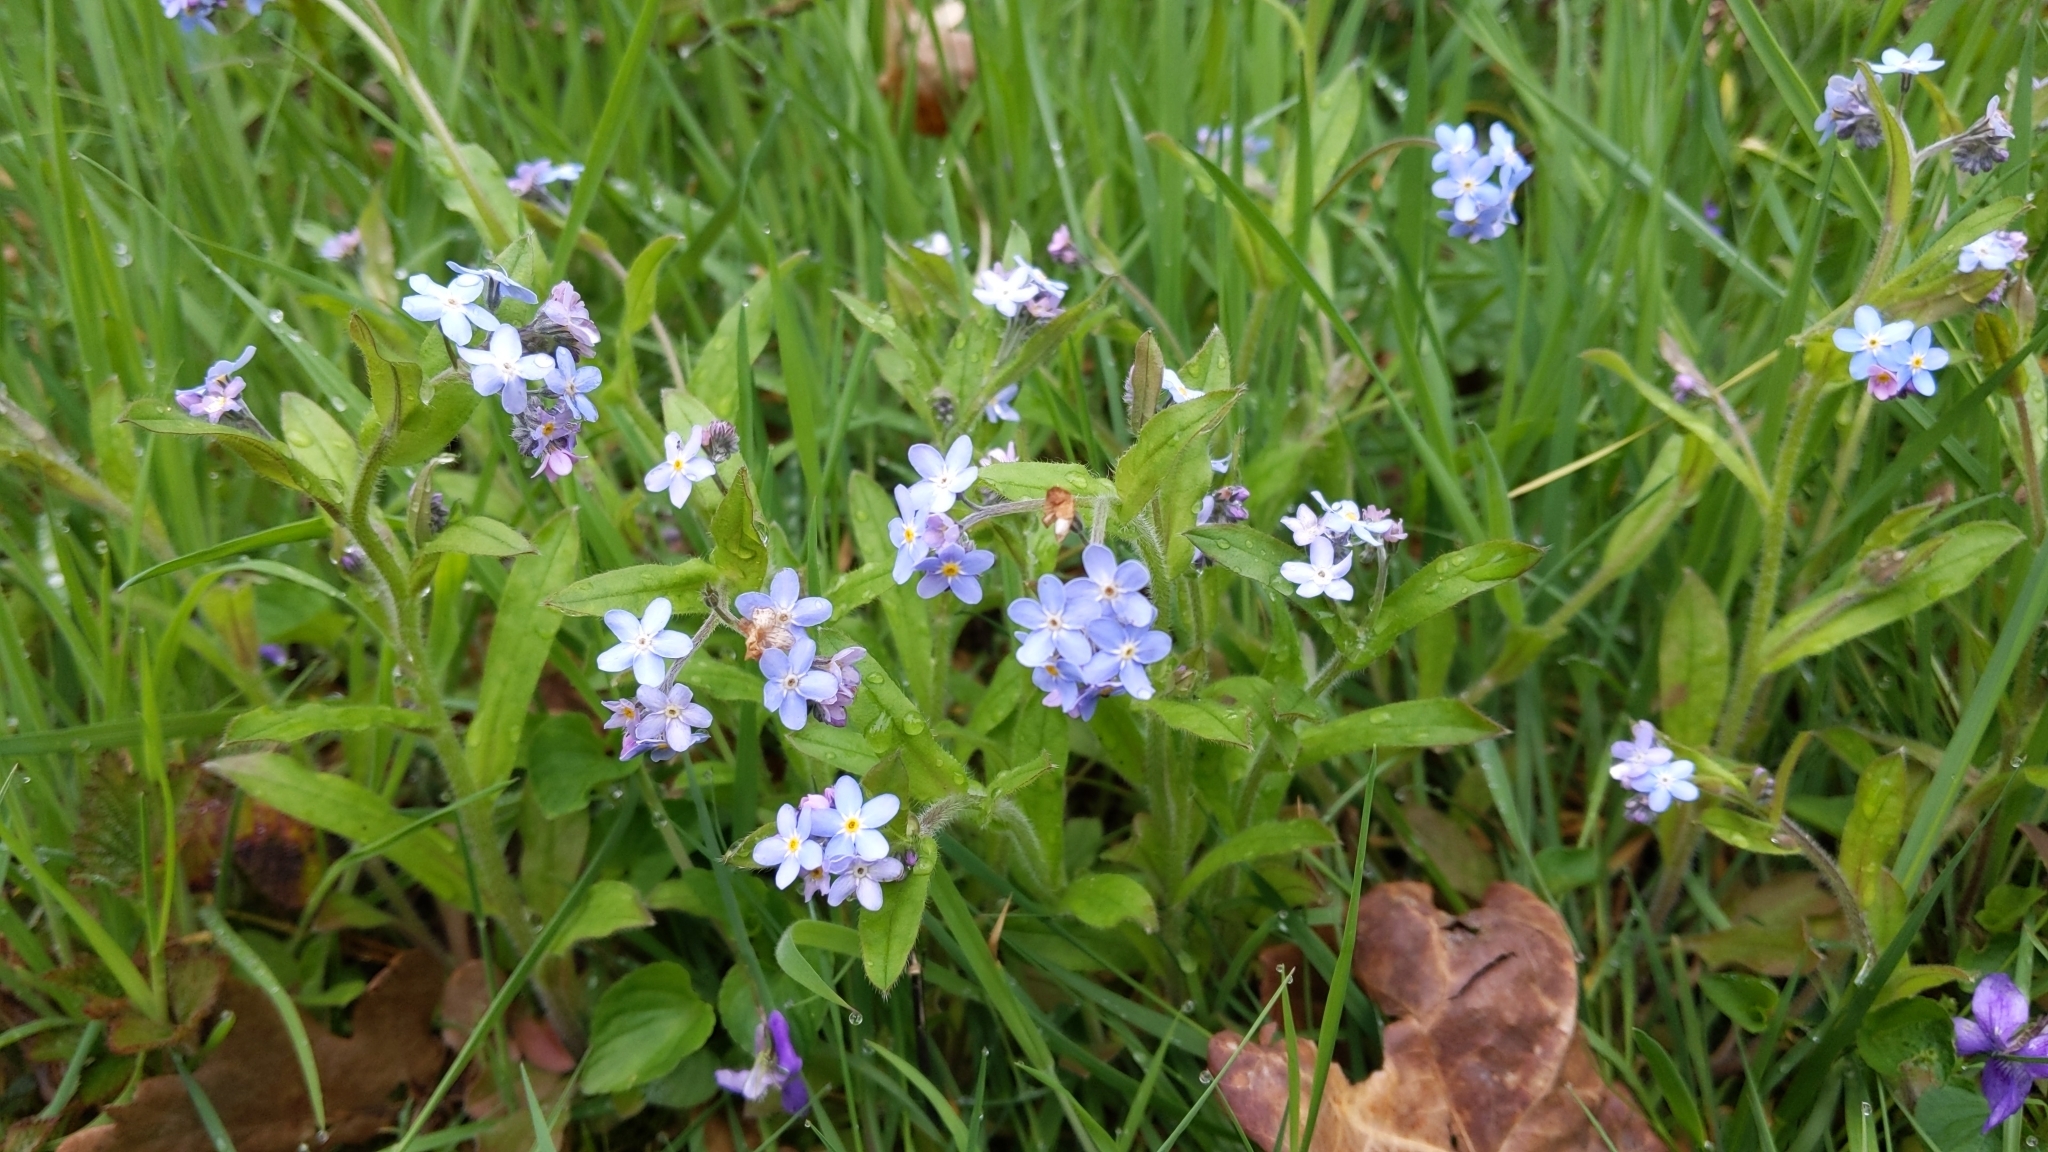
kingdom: Plantae
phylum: Tracheophyta
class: Magnoliopsida
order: Boraginales
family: Boraginaceae
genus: Myosotis
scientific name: Myosotis sylvatica
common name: Wood forget-me-not
